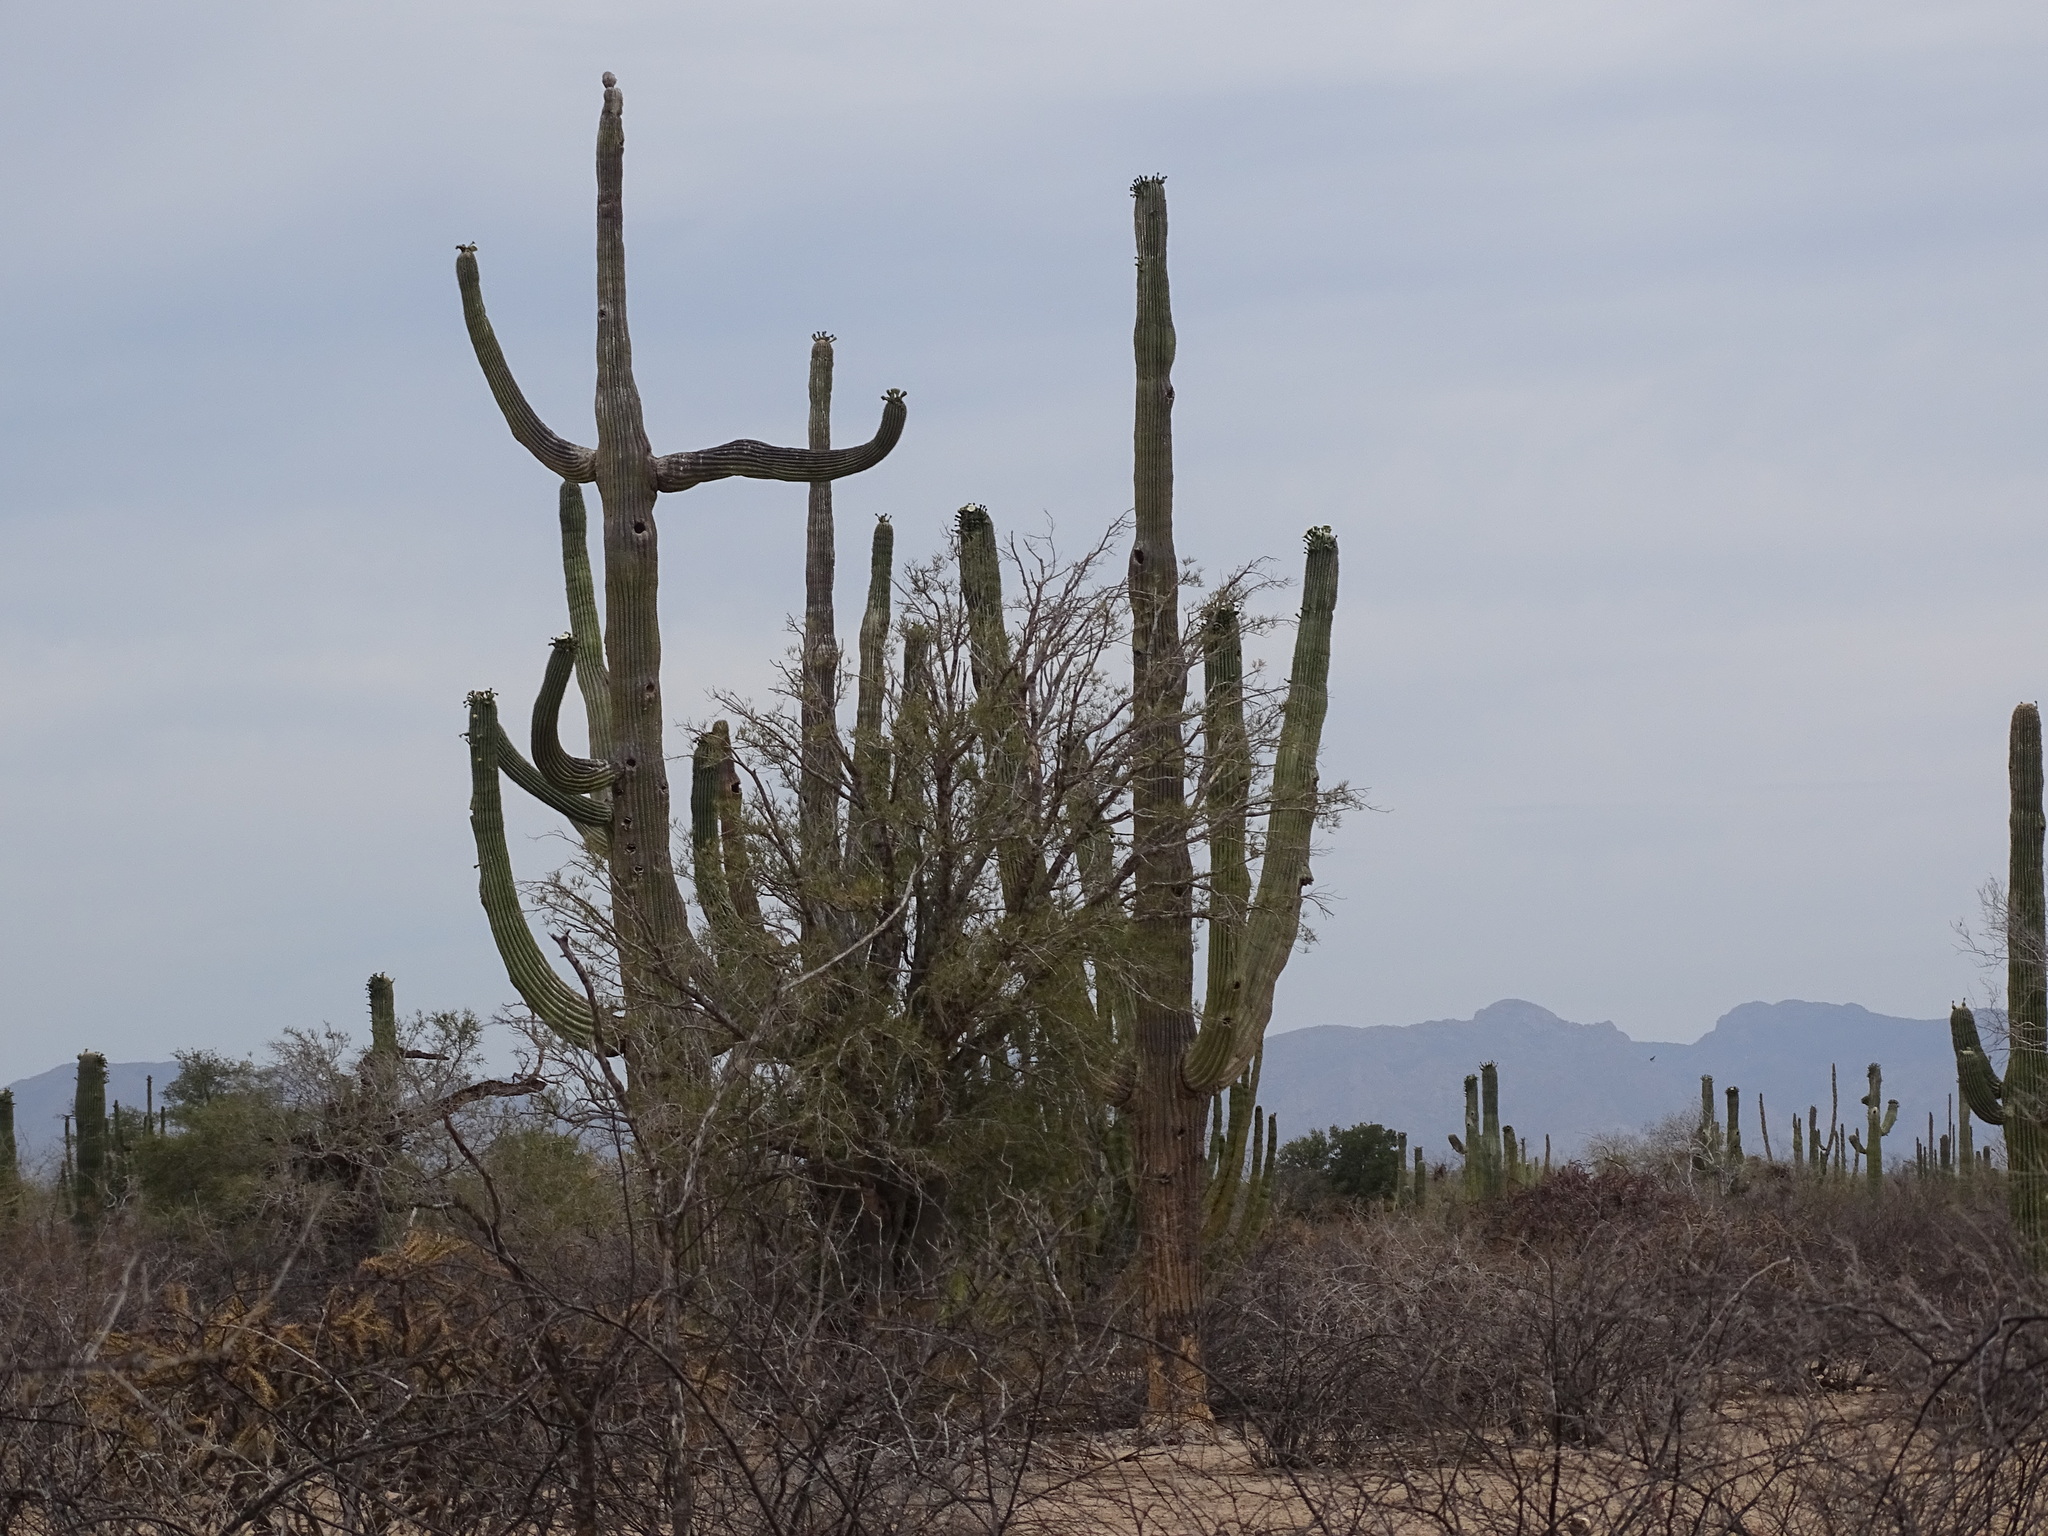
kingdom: Plantae
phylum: Tracheophyta
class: Magnoliopsida
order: Caryophyllales
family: Cactaceae
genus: Carnegiea
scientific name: Carnegiea gigantea
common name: Saguaro
